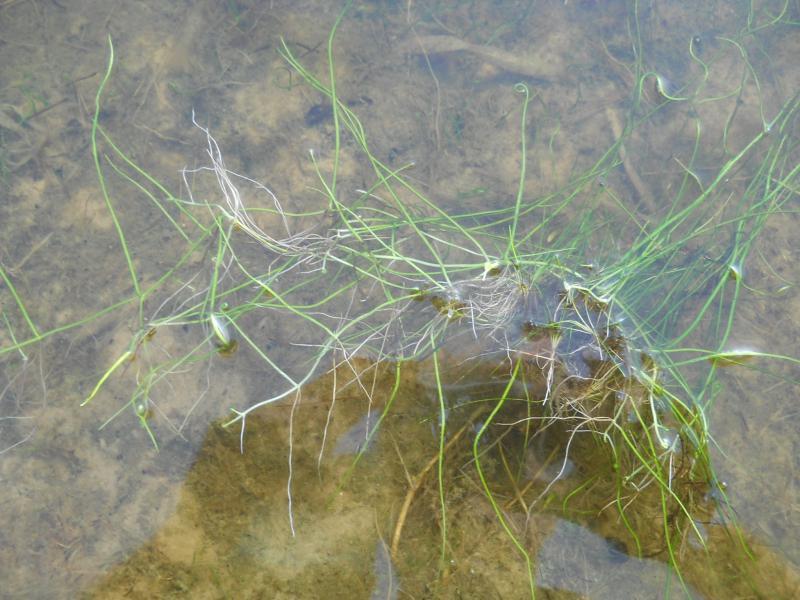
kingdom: Plantae
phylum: Tracheophyta
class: Polypodiopsida
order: Salviniales
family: Marsileaceae
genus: Pilularia
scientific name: Pilularia globulifera
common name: Pillwort
